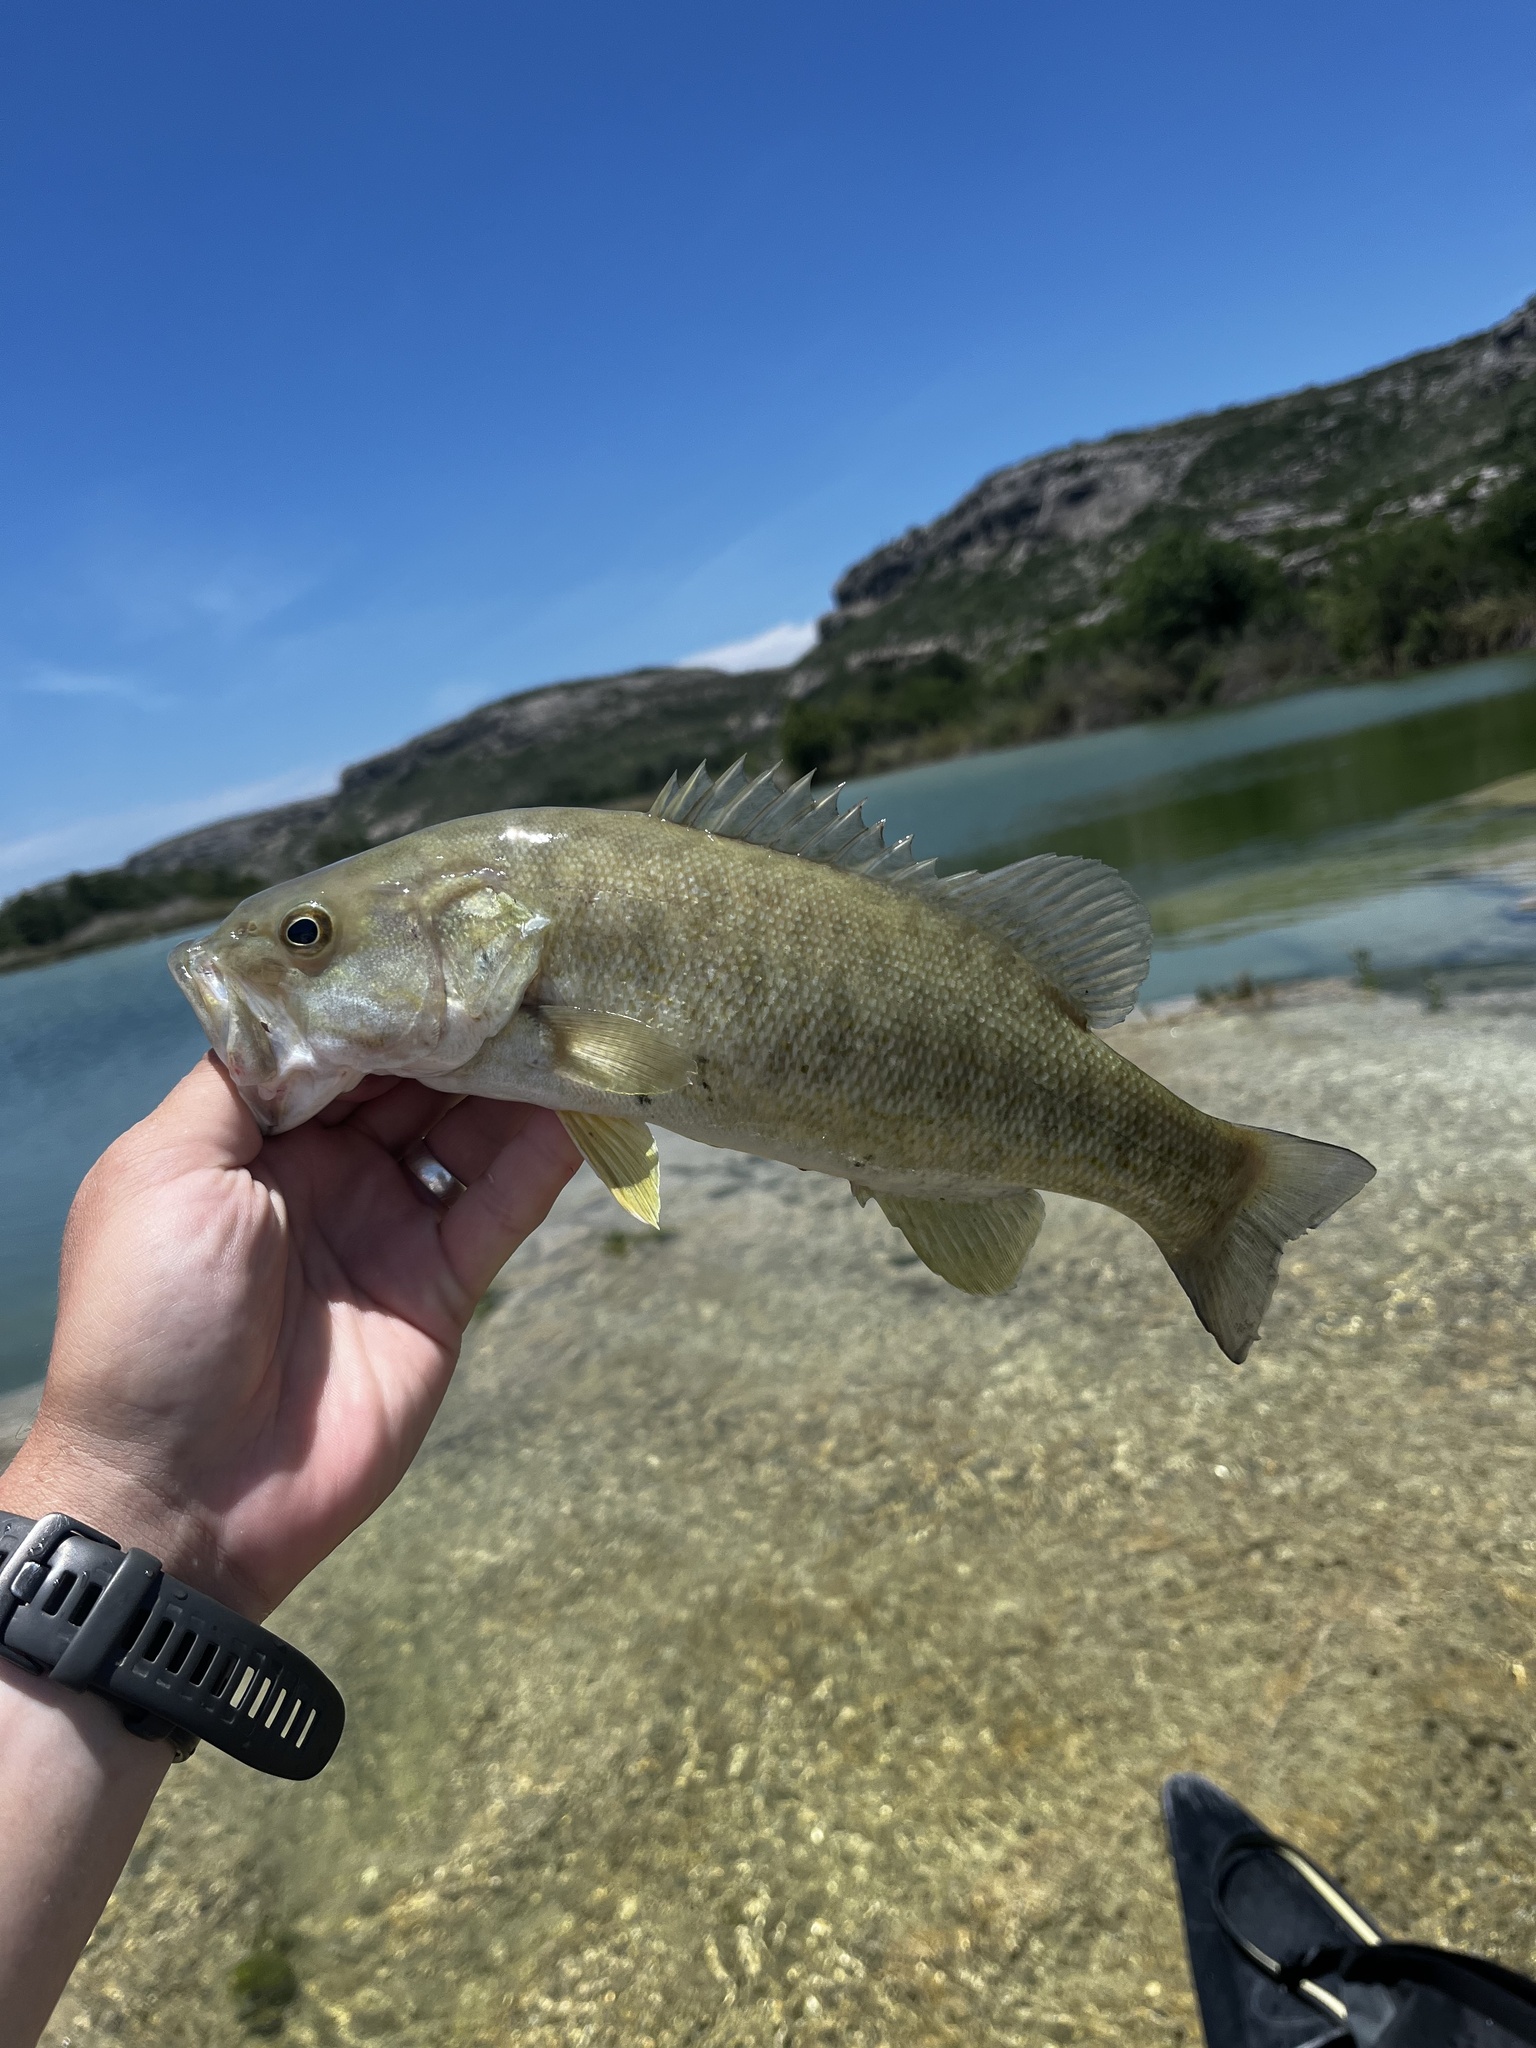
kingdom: Animalia
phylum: Chordata
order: Perciformes
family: Centrarchidae
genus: Micropterus
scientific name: Micropterus dolomieu
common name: Smallmouth bass
